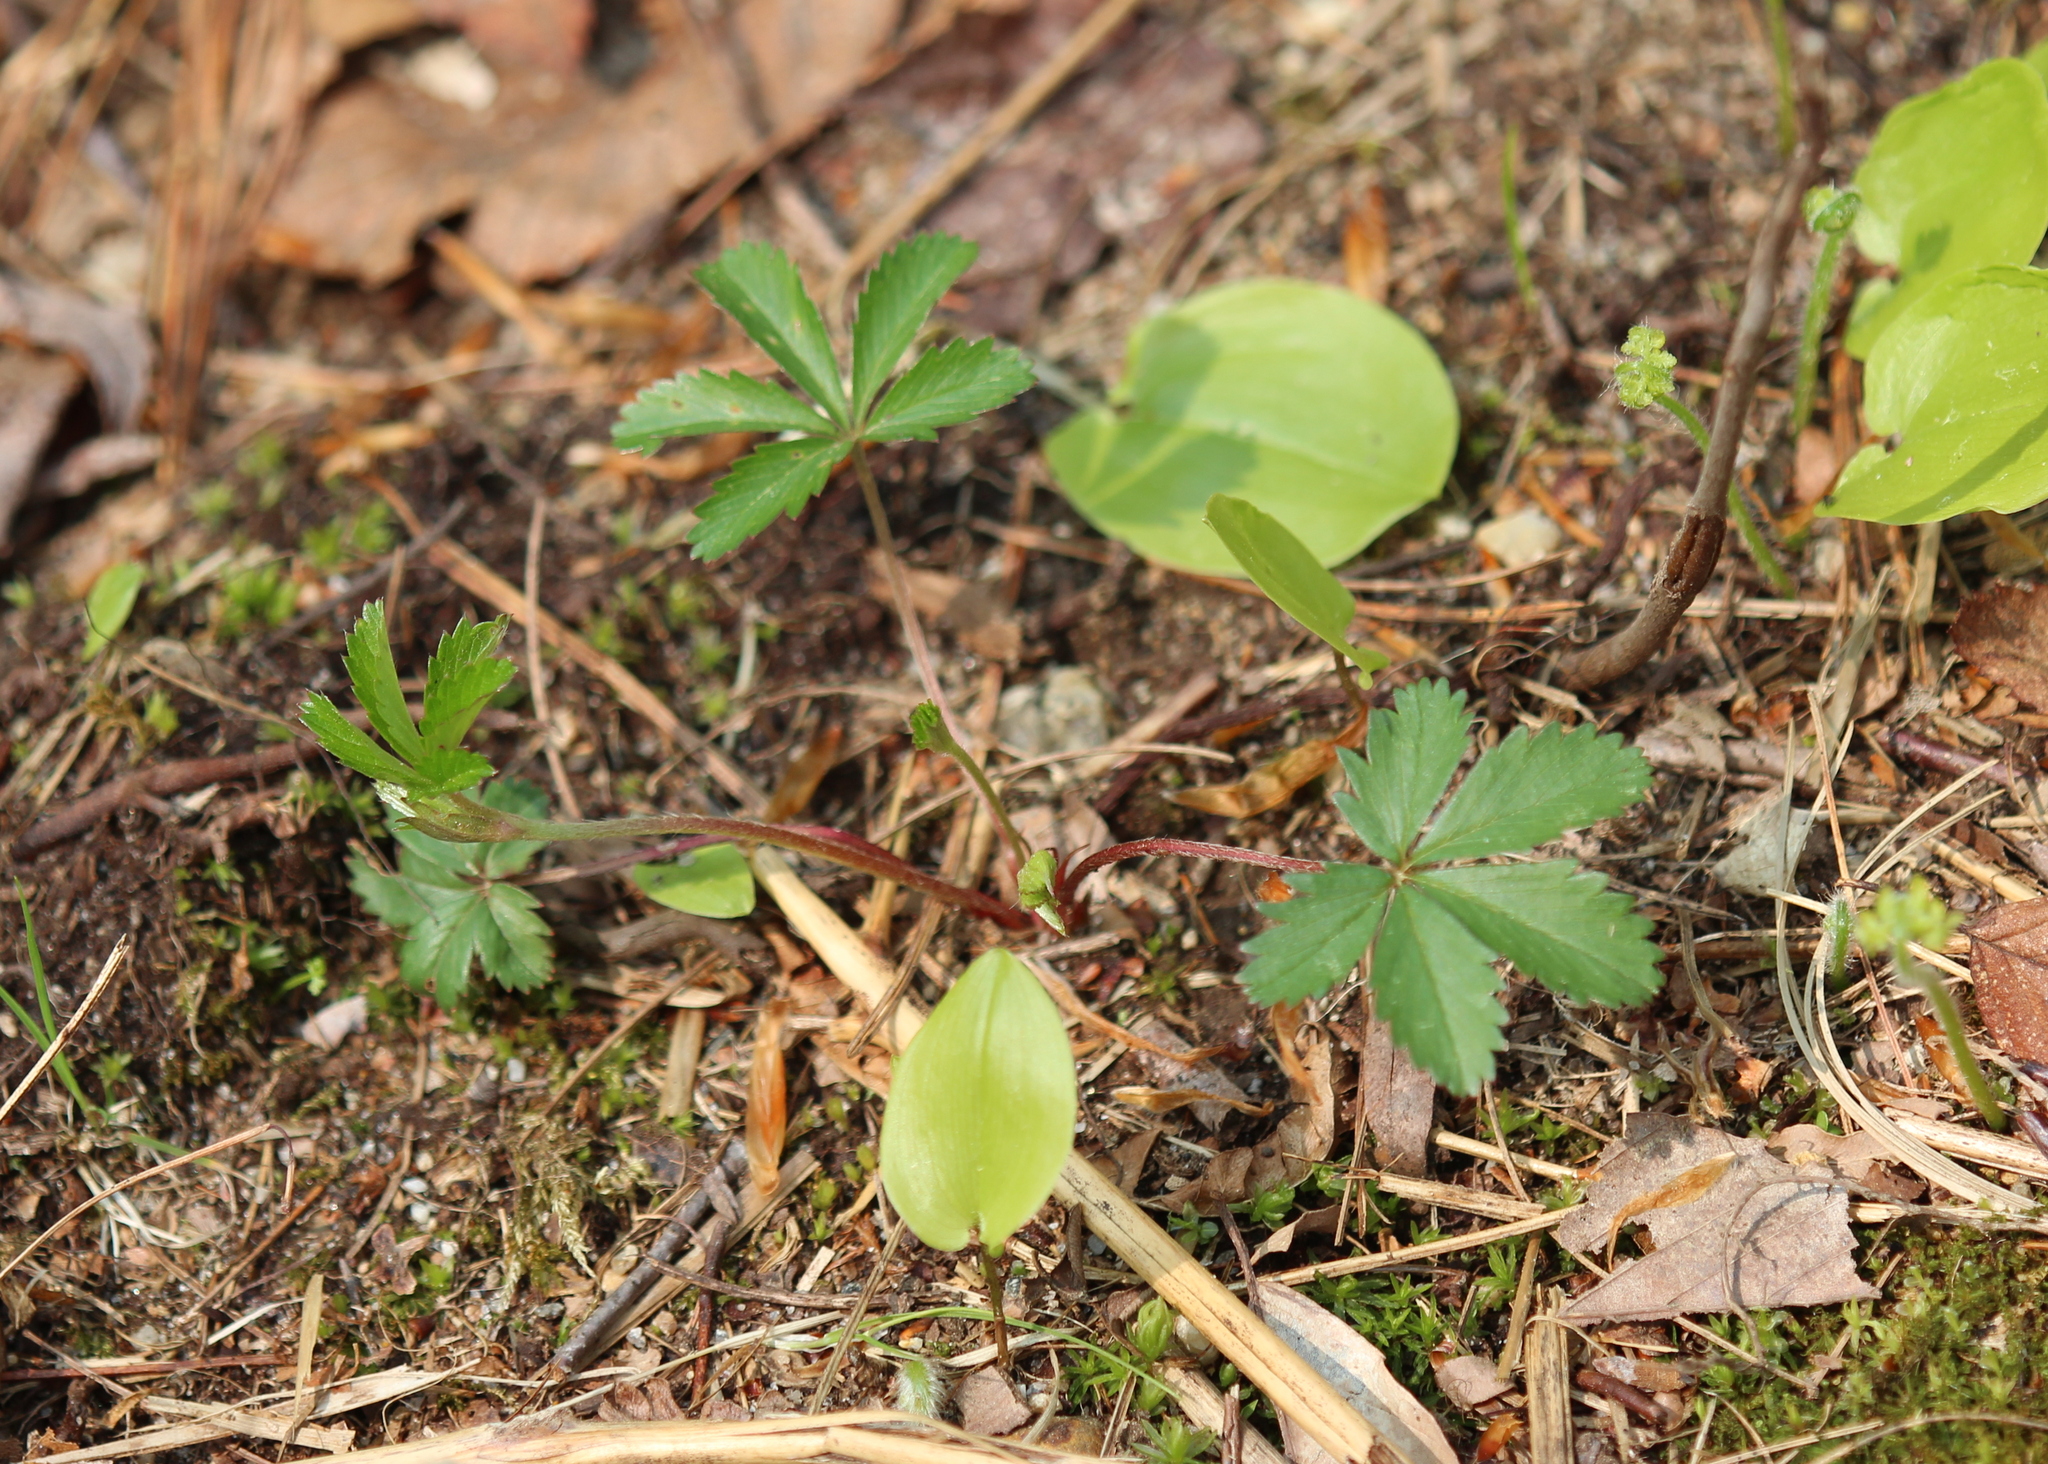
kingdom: Plantae
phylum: Tracheophyta
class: Magnoliopsida
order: Rosales
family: Rosaceae
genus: Potentilla
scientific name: Potentilla simplex
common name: Old field cinquefoil
